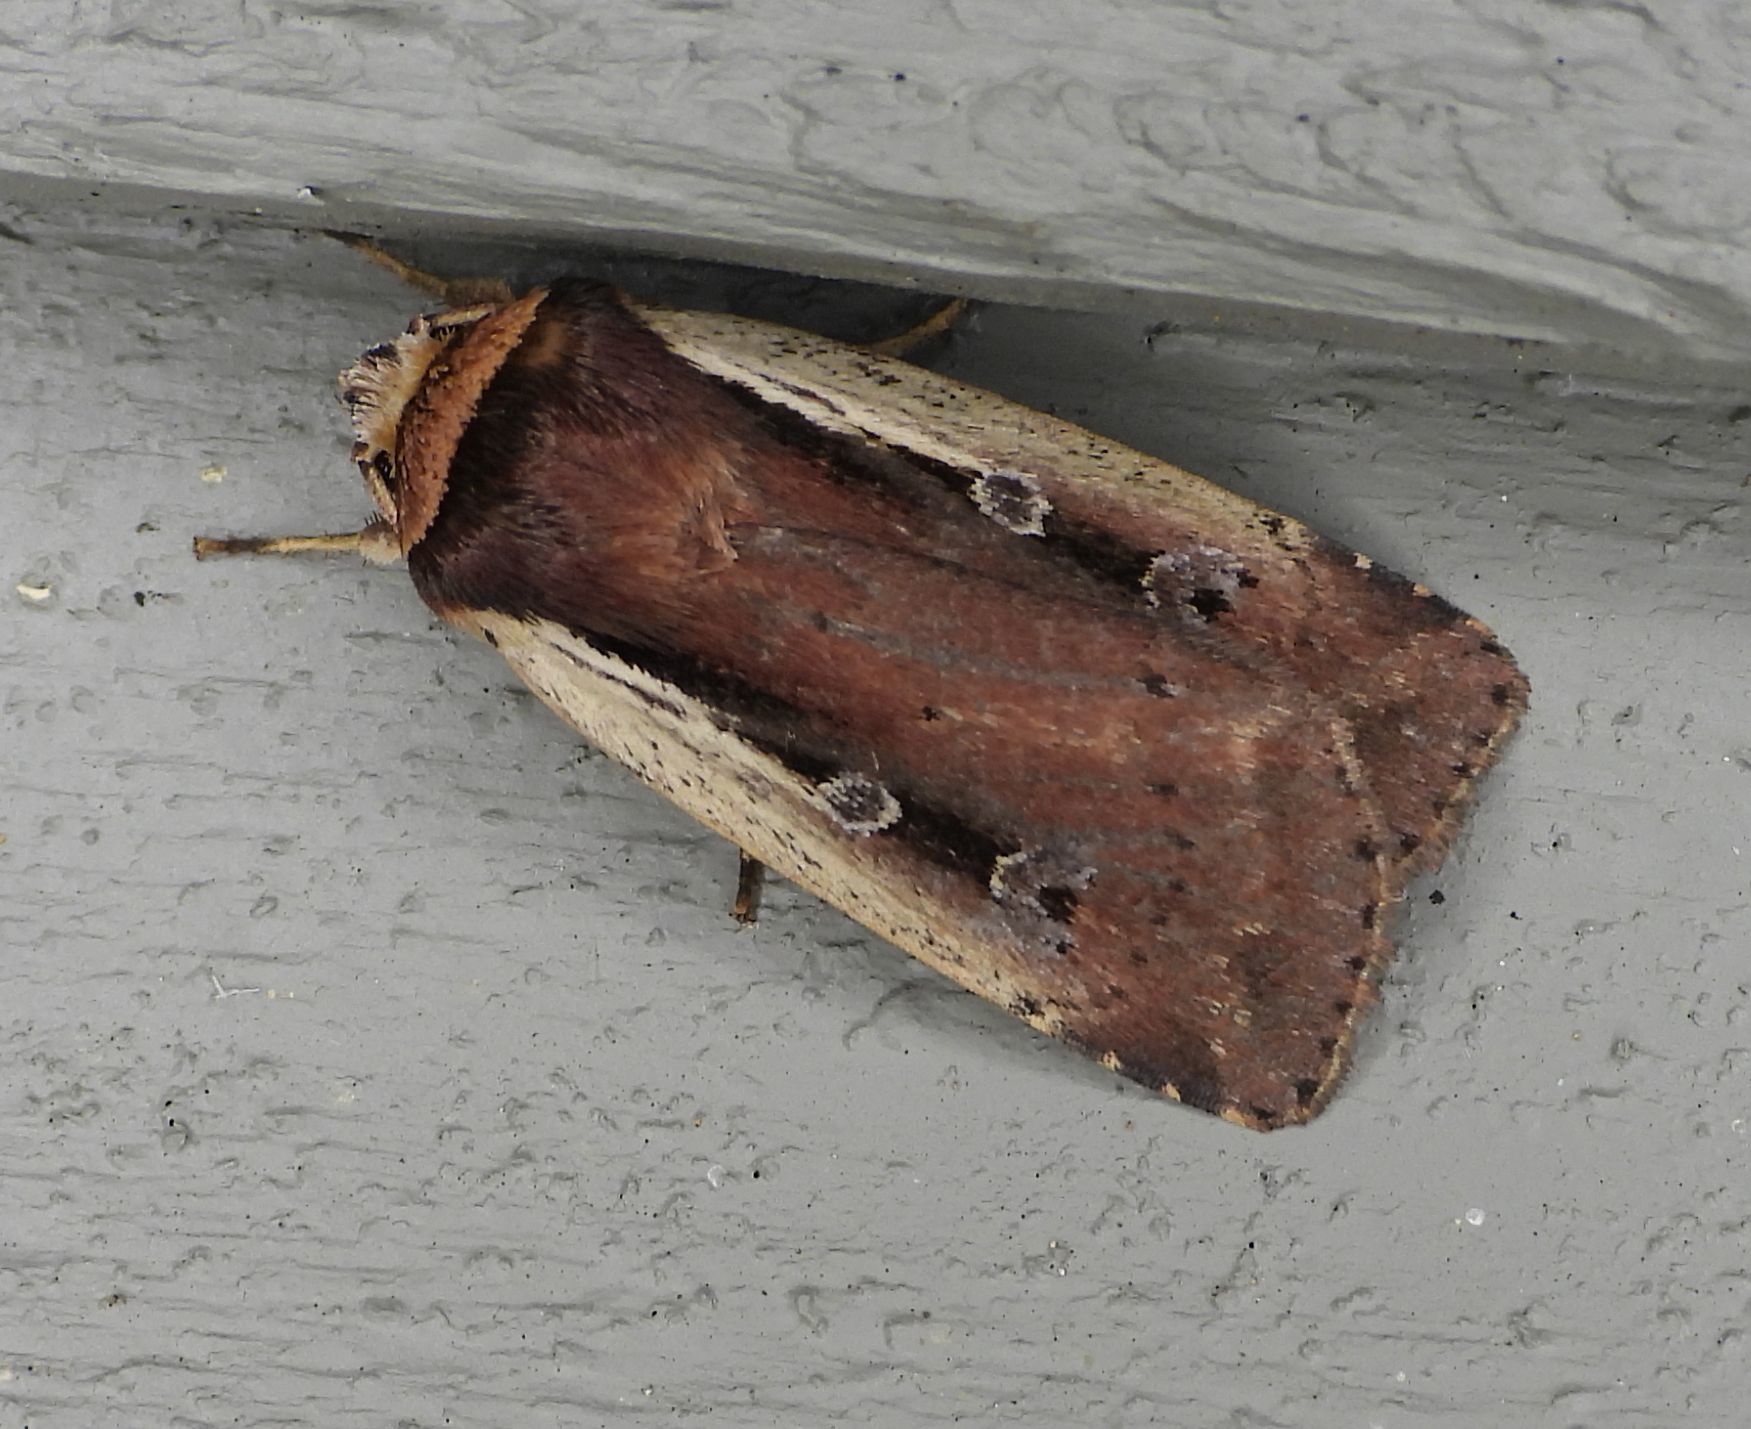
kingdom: Animalia
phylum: Arthropoda
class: Insecta
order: Lepidoptera
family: Noctuidae
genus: Ochropleura
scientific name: Ochropleura implecta
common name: Flame-shouldered dart
